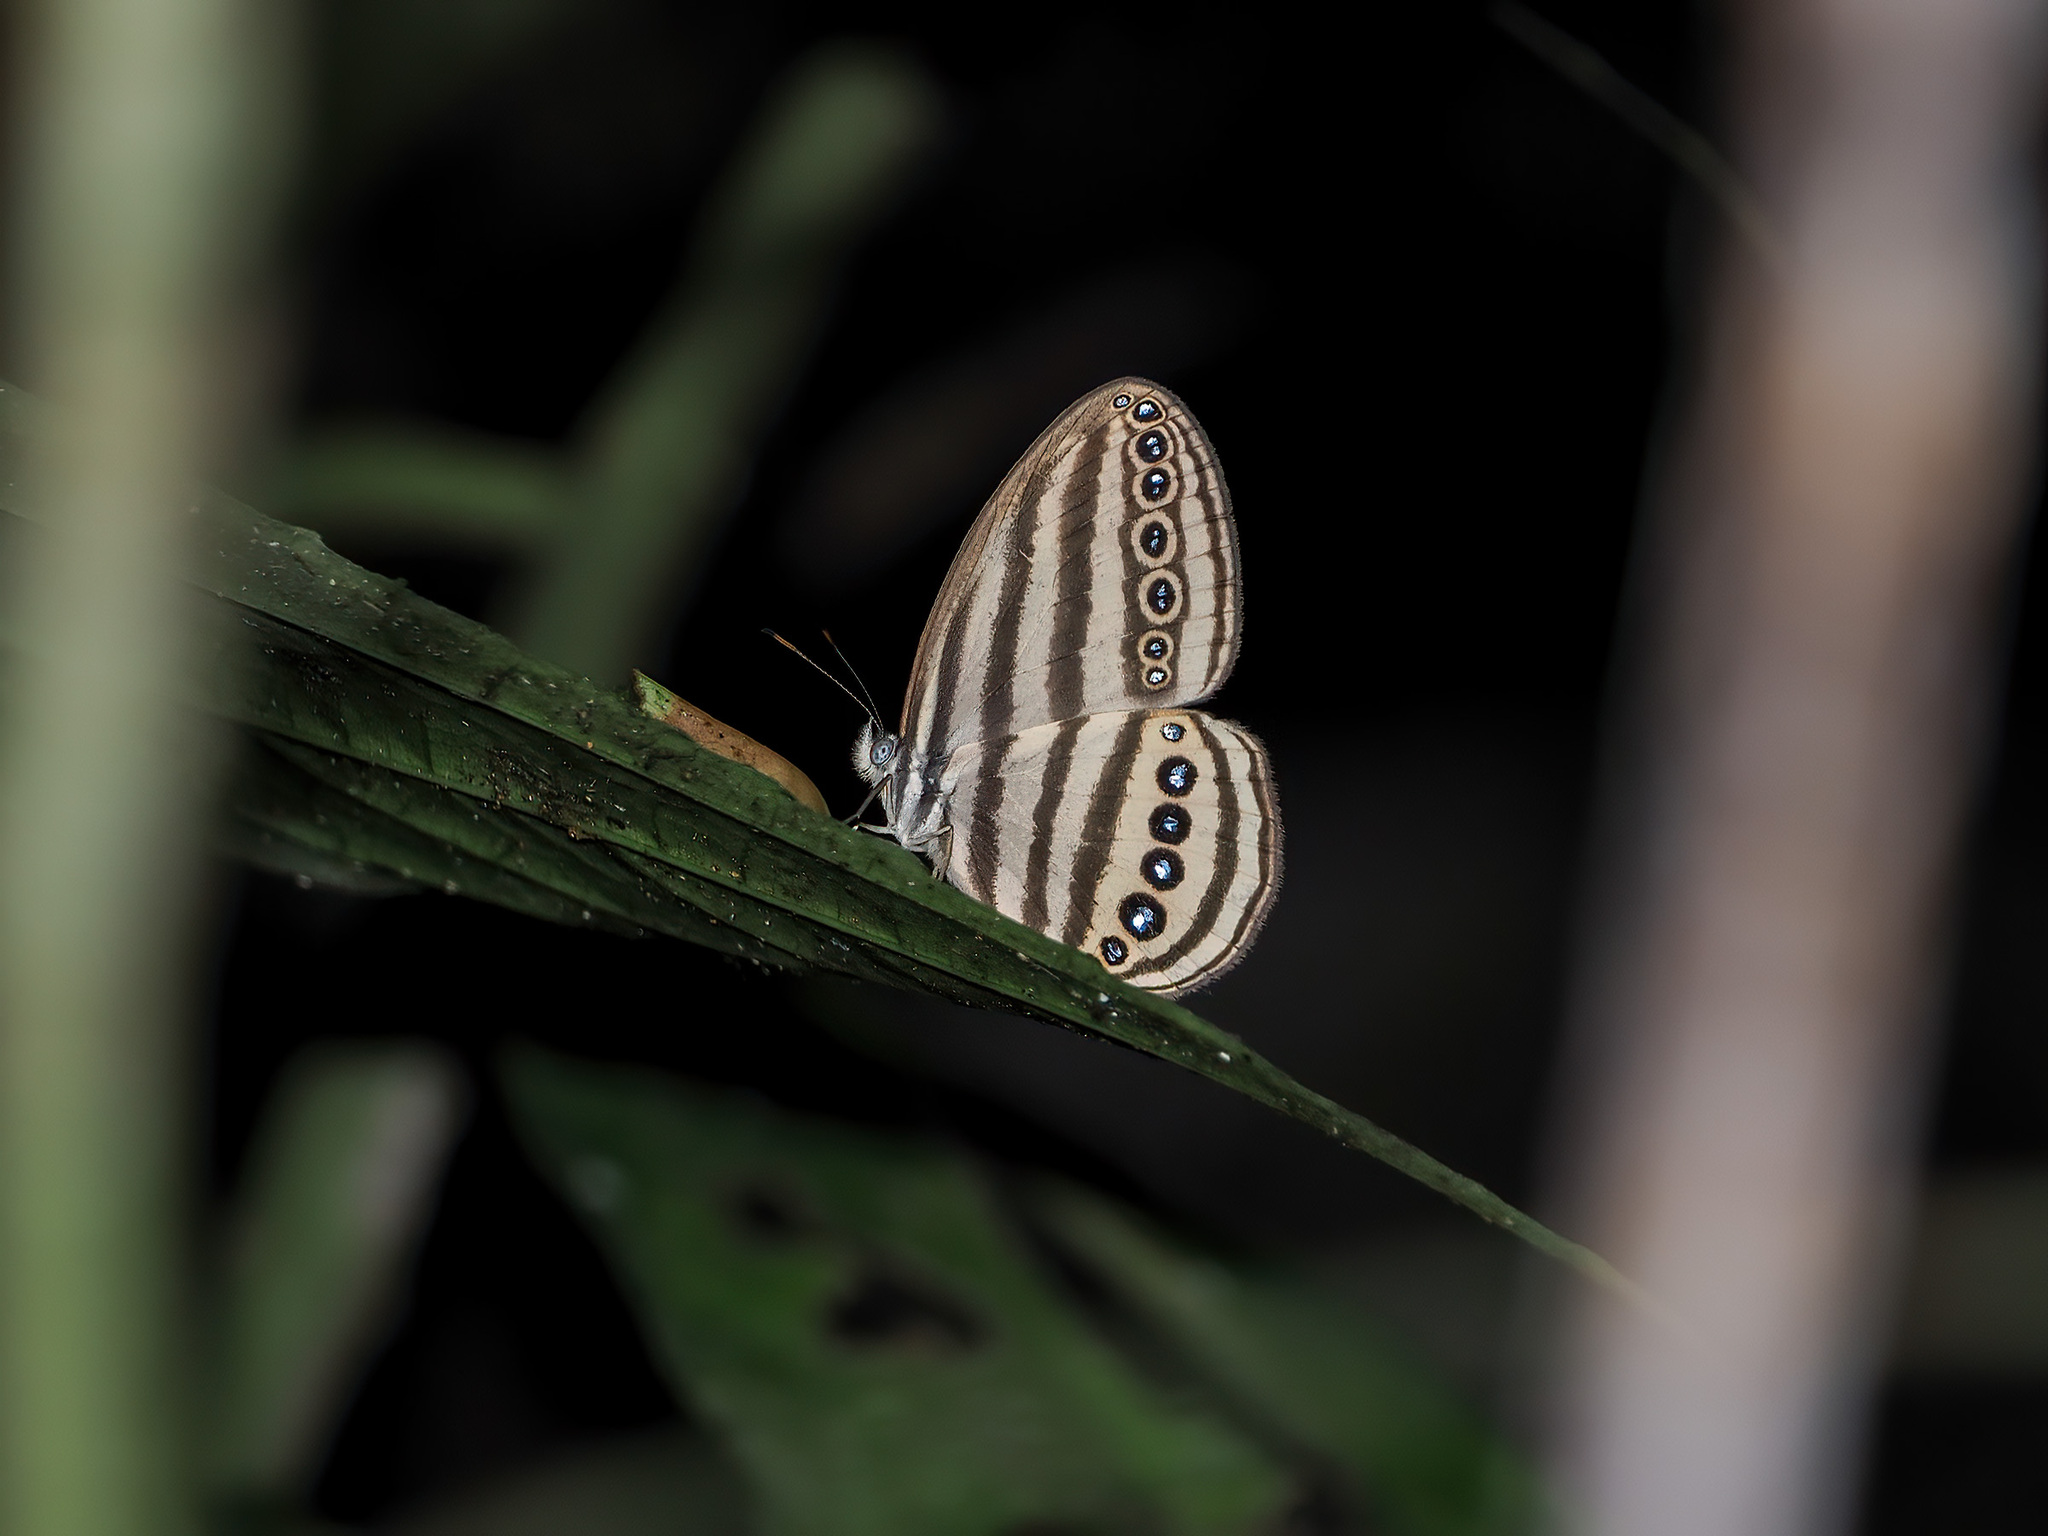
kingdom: Animalia
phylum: Arthropoda
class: Insecta
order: Lepidoptera
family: Nymphalidae
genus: Ragadia
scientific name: Ragadia makuta
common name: Striped ringlet
